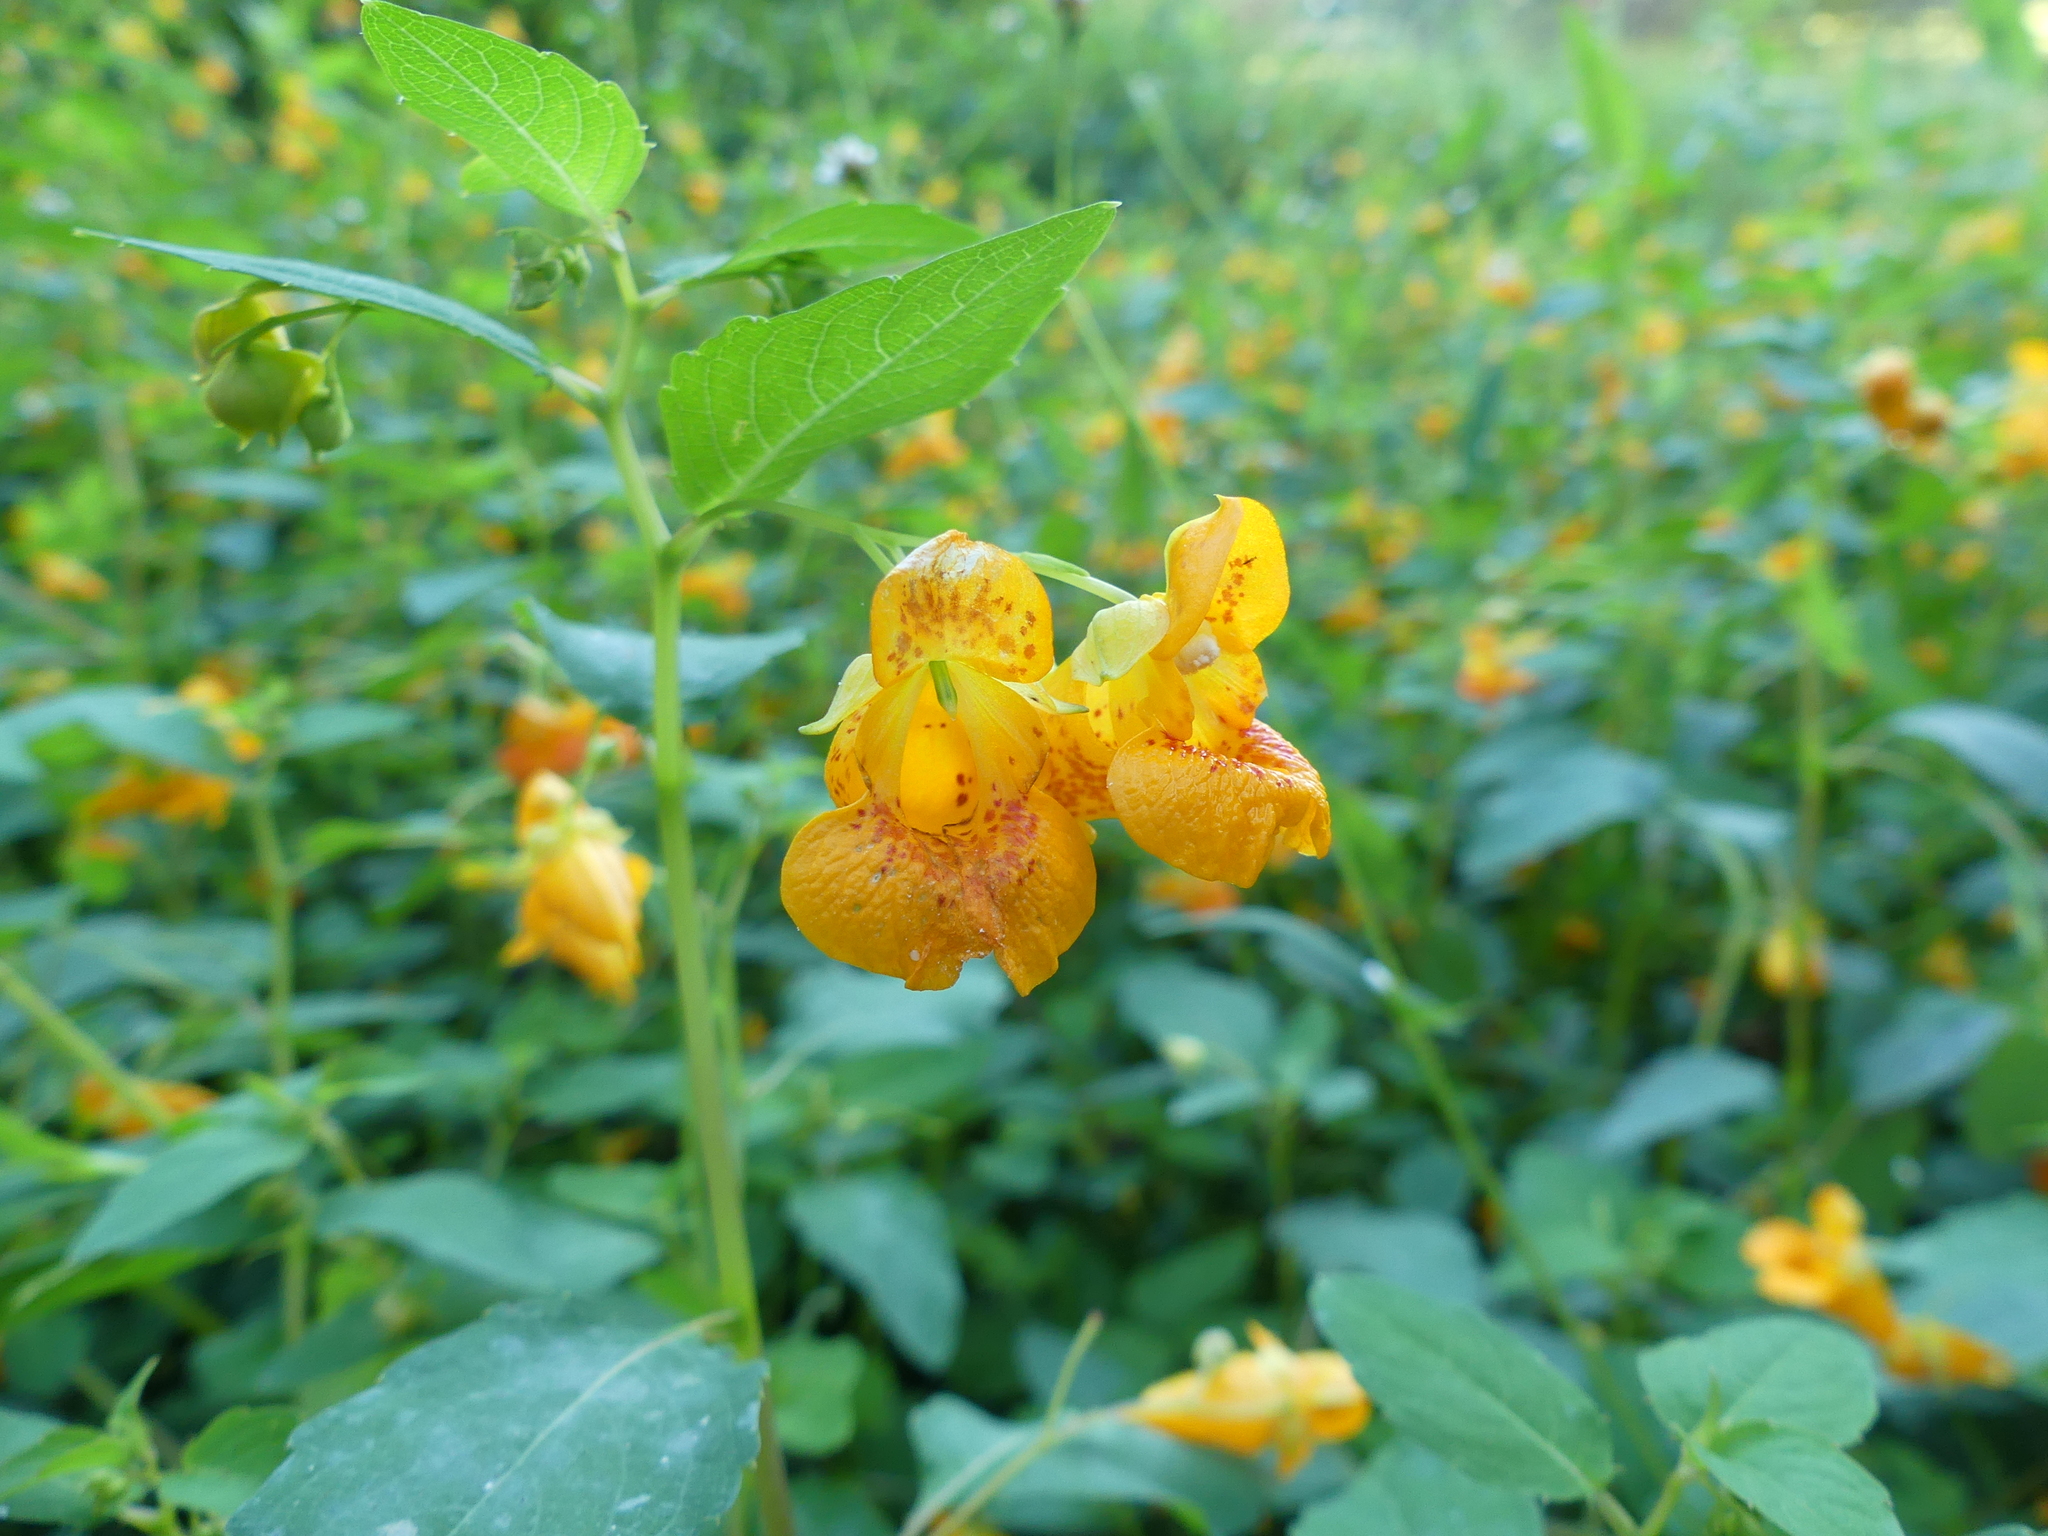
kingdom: Plantae
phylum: Tracheophyta
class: Magnoliopsida
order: Ericales
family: Balsaminaceae
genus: Impatiens
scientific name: Impatiens capensis
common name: Orange balsam
